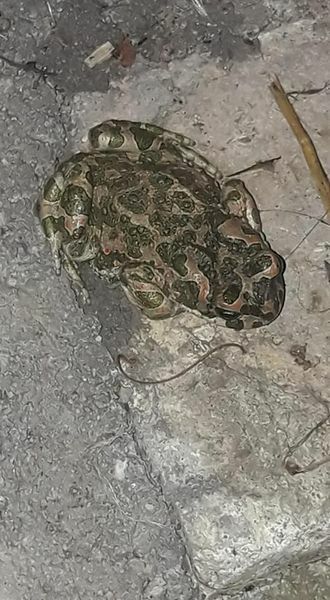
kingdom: Animalia
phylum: Chordata
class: Amphibia
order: Anura
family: Bufonidae
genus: Bufotes
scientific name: Bufotes viridis
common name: European green toad
